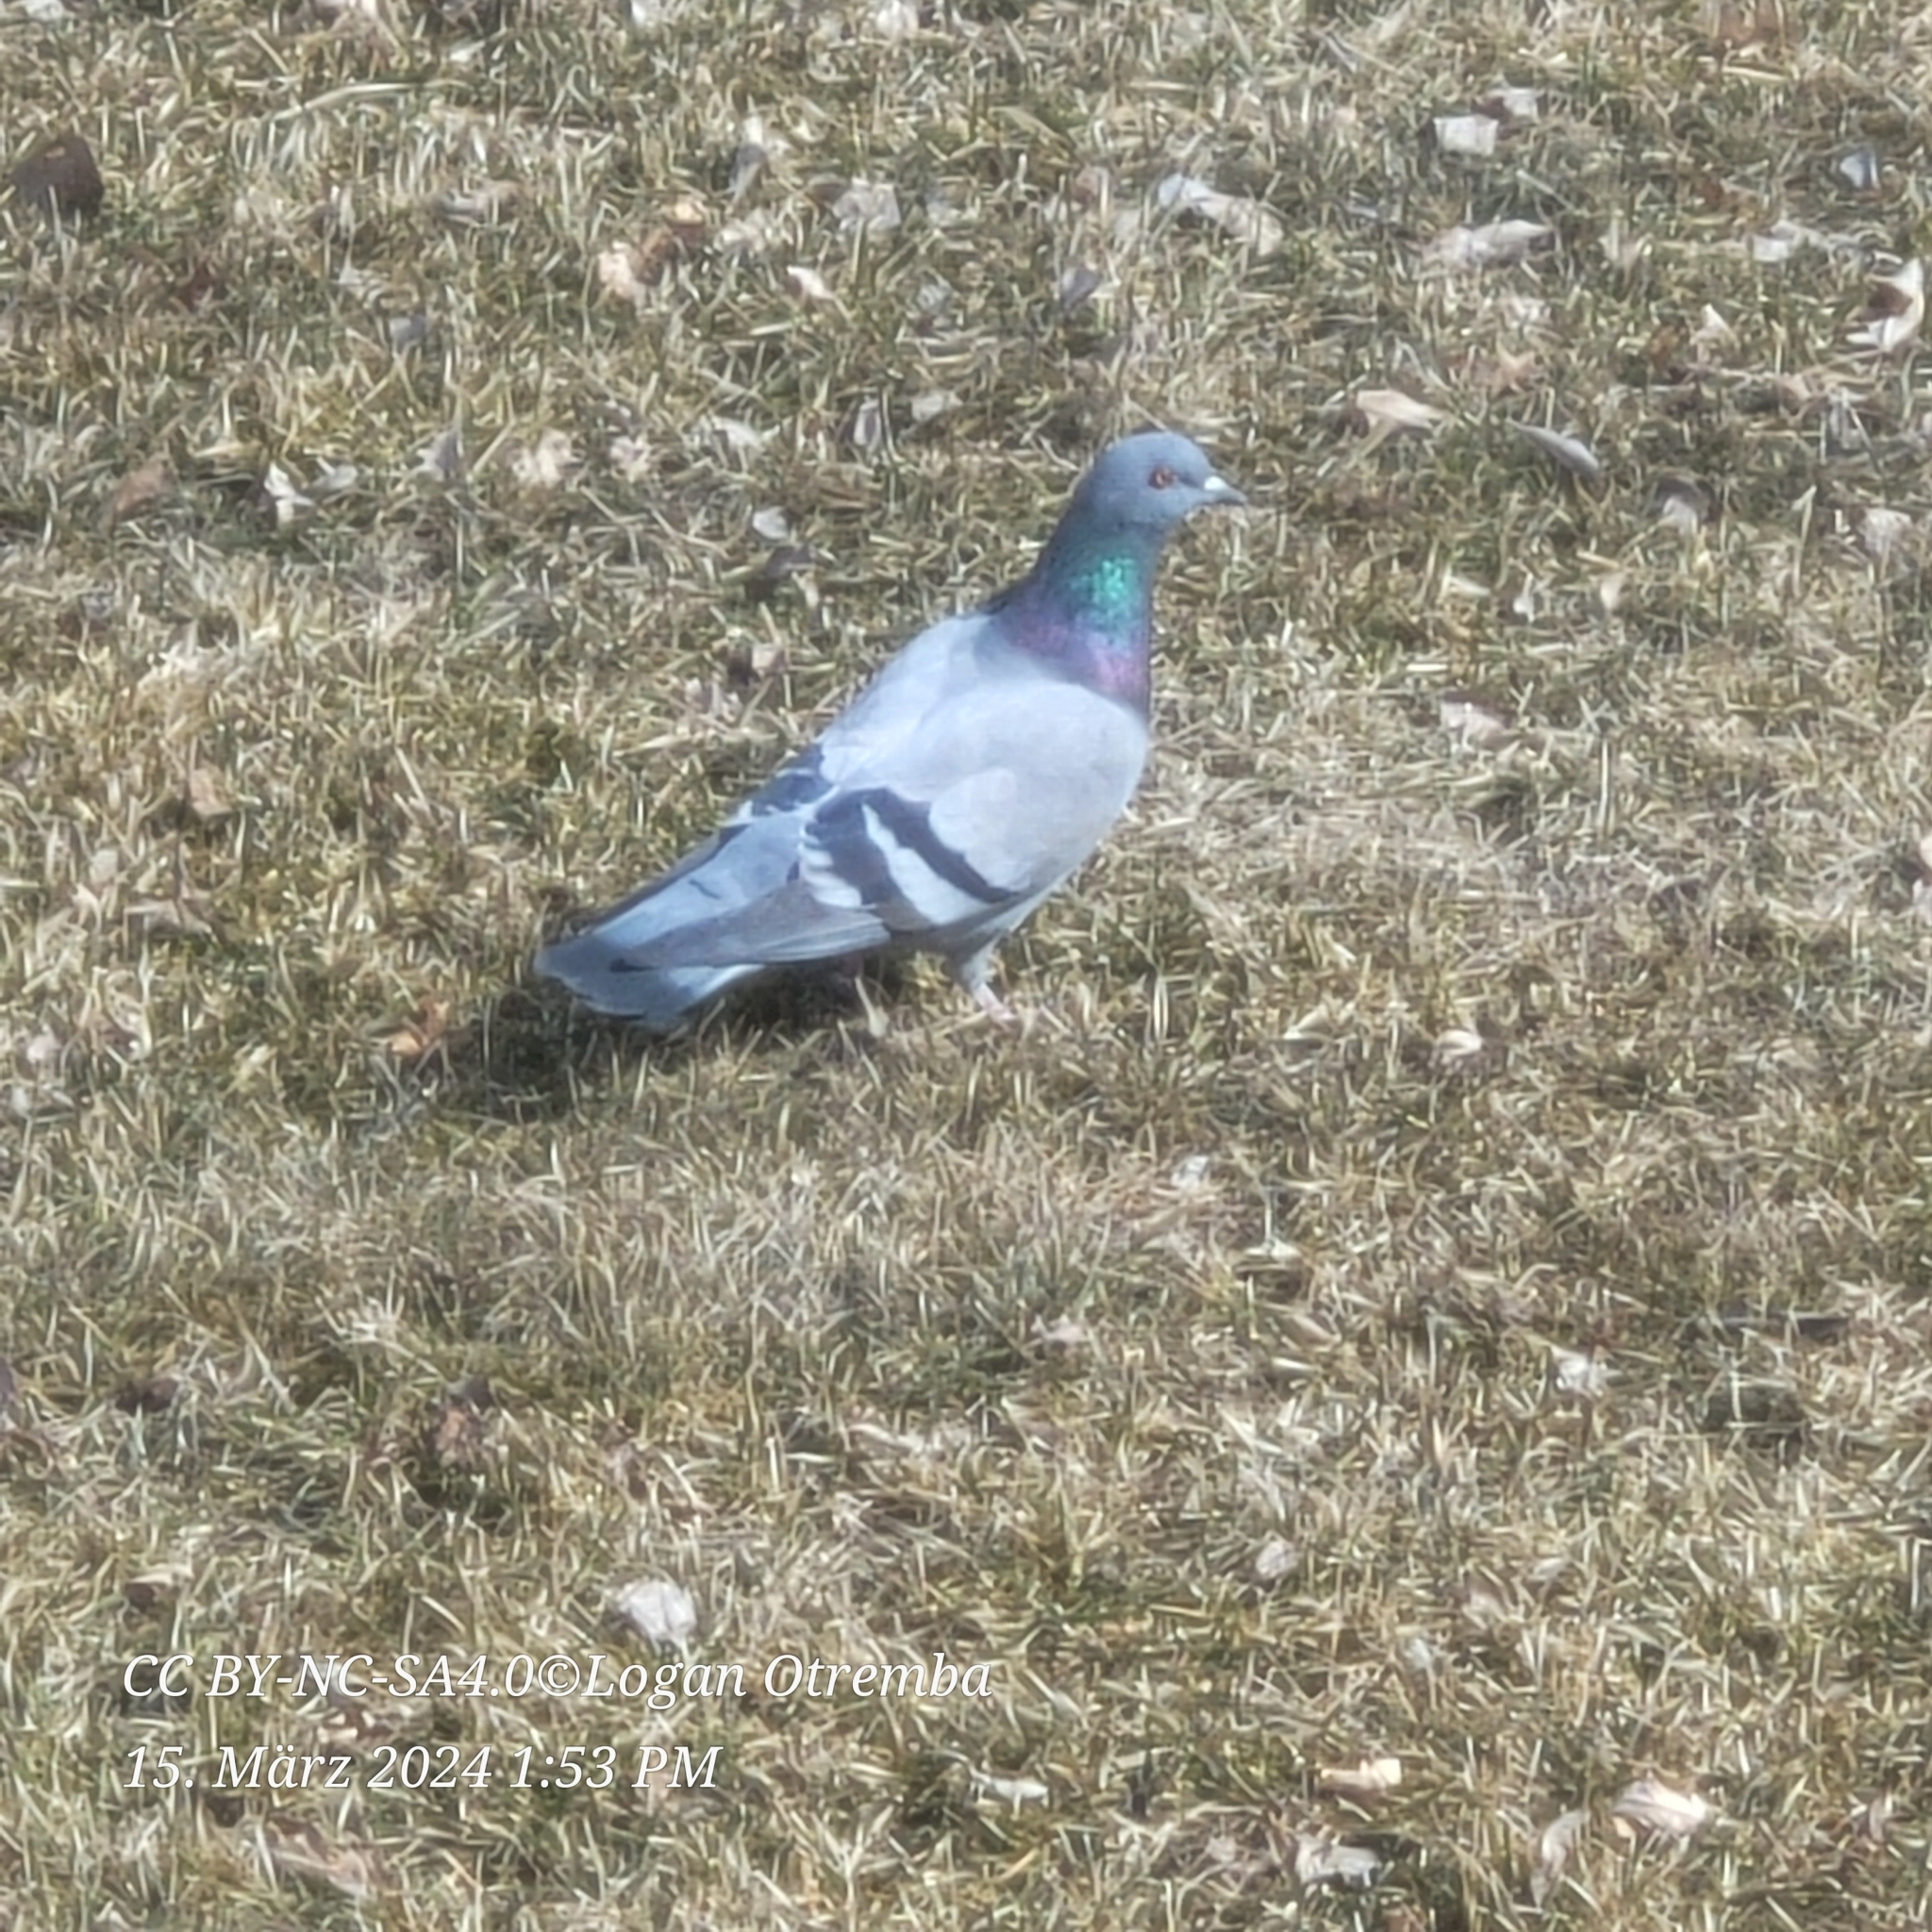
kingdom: Animalia
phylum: Chordata
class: Aves
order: Columbiformes
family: Columbidae
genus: Columba
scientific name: Columba livia
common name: Rock pigeon
